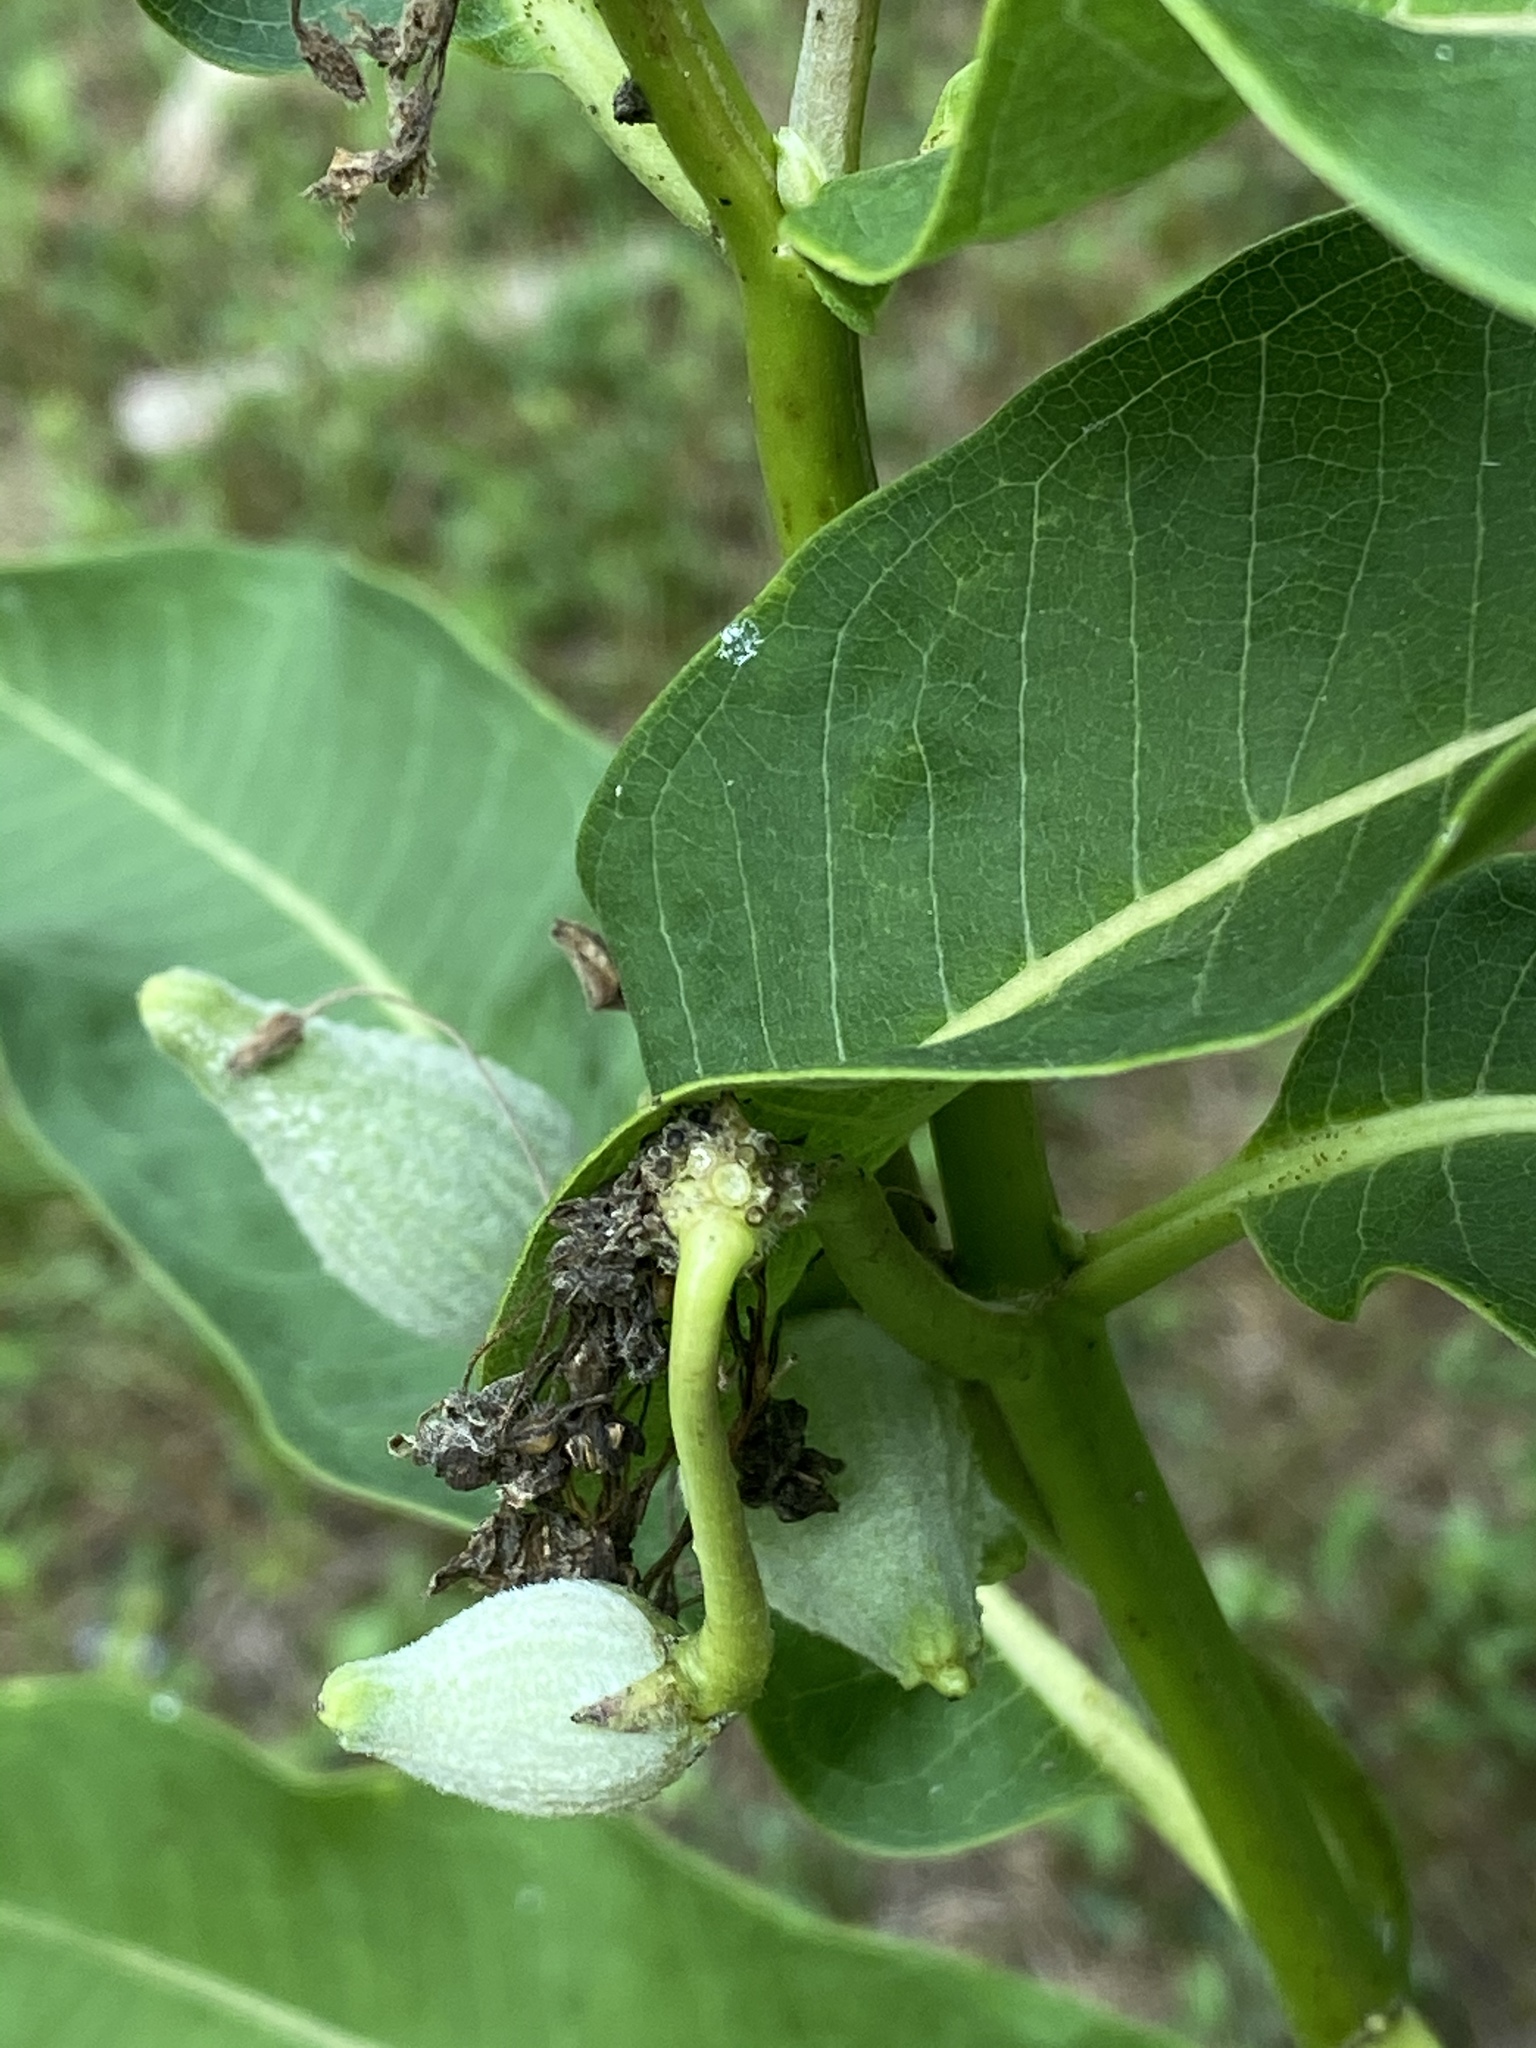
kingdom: Plantae
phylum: Tracheophyta
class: Magnoliopsida
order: Gentianales
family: Apocynaceae
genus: Asclepias
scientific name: Asclepias syriaca
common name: Common milkweed
